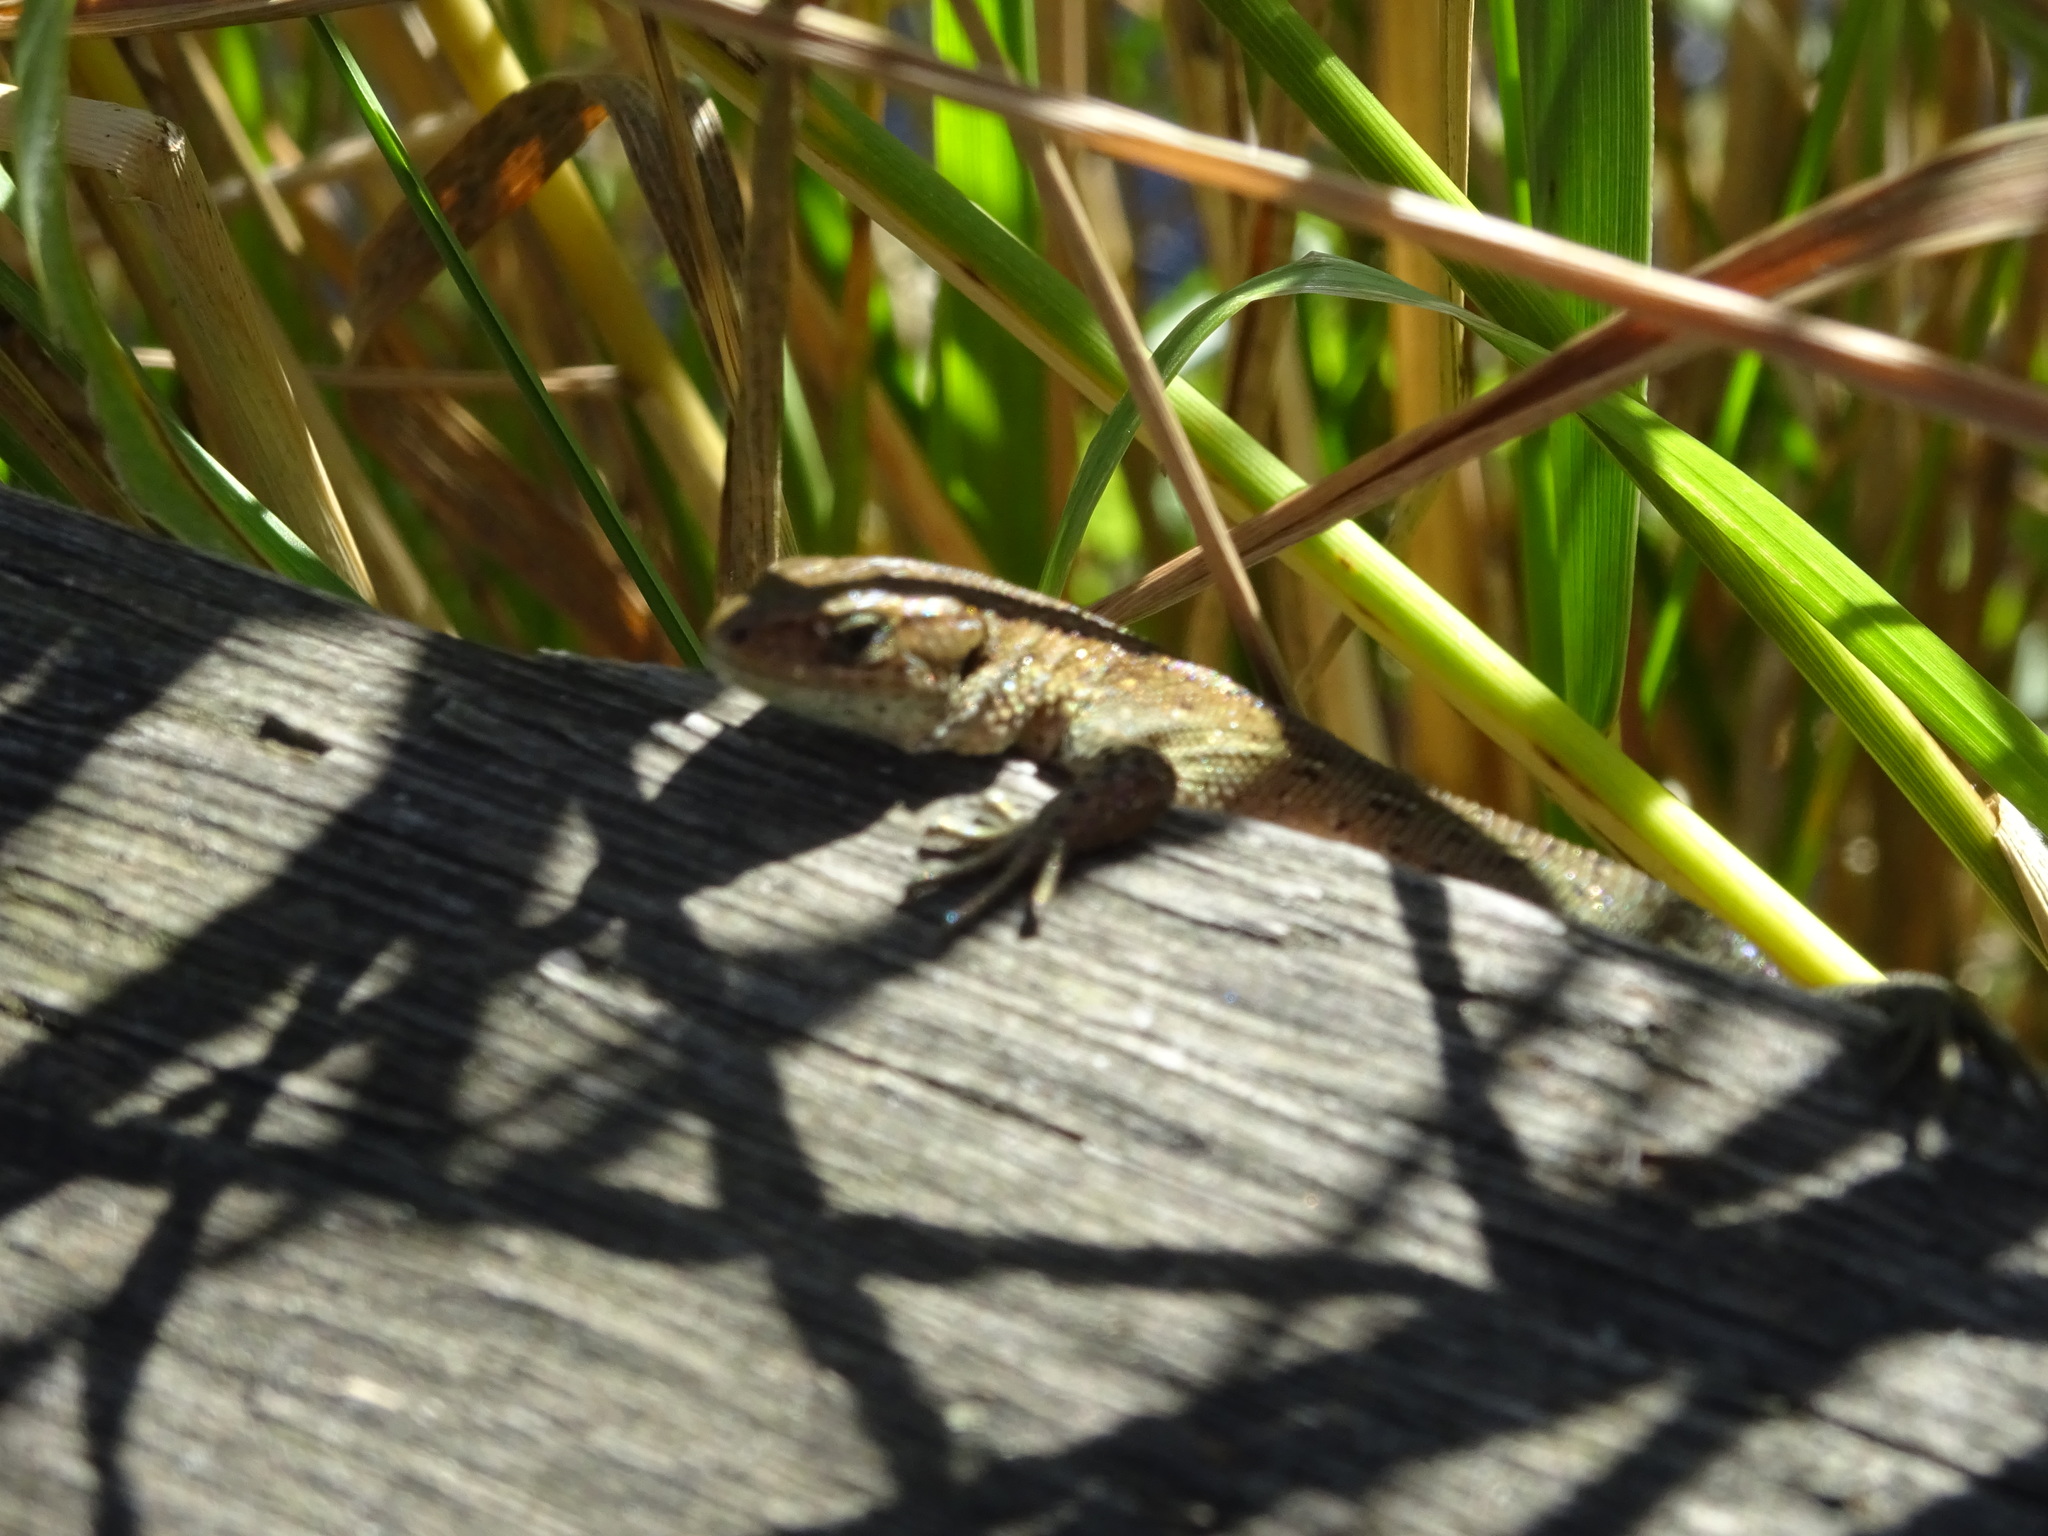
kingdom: Animalia
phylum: Chordata
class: Squamata
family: Lacertidae
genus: Zootoca
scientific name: Zootoca vivipara
